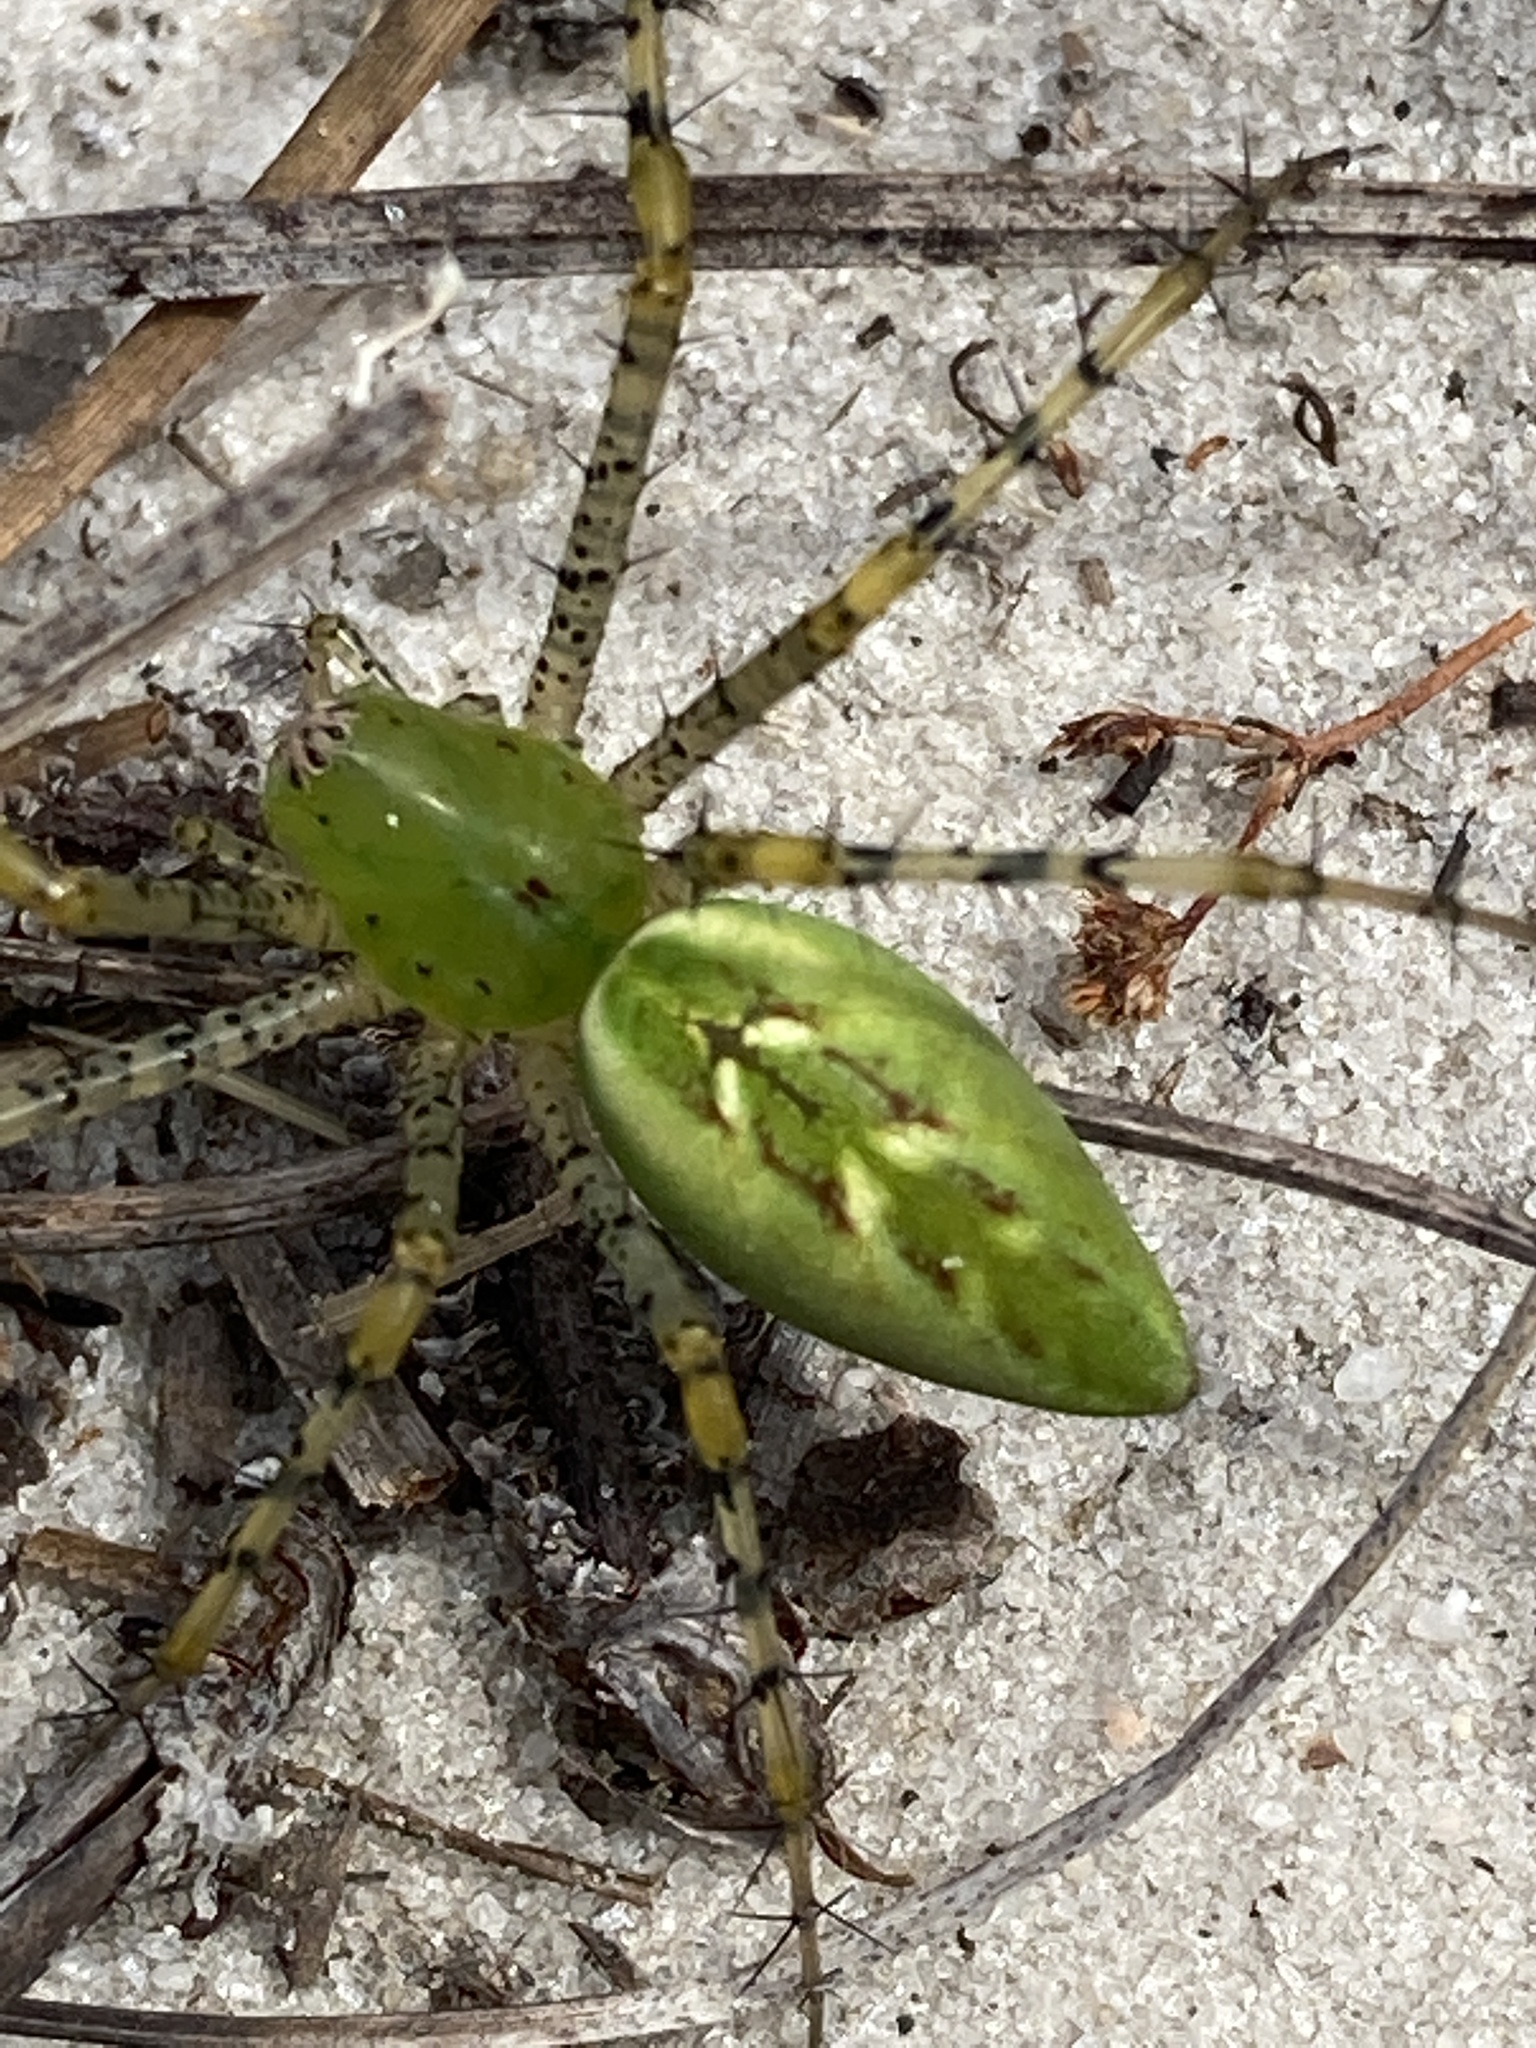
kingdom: Animalia
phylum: Arthropoda
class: Arachnida
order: Araneae
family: Oxyopidae
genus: Peucetia
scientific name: Peucetia viridans
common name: Lynx spiders
